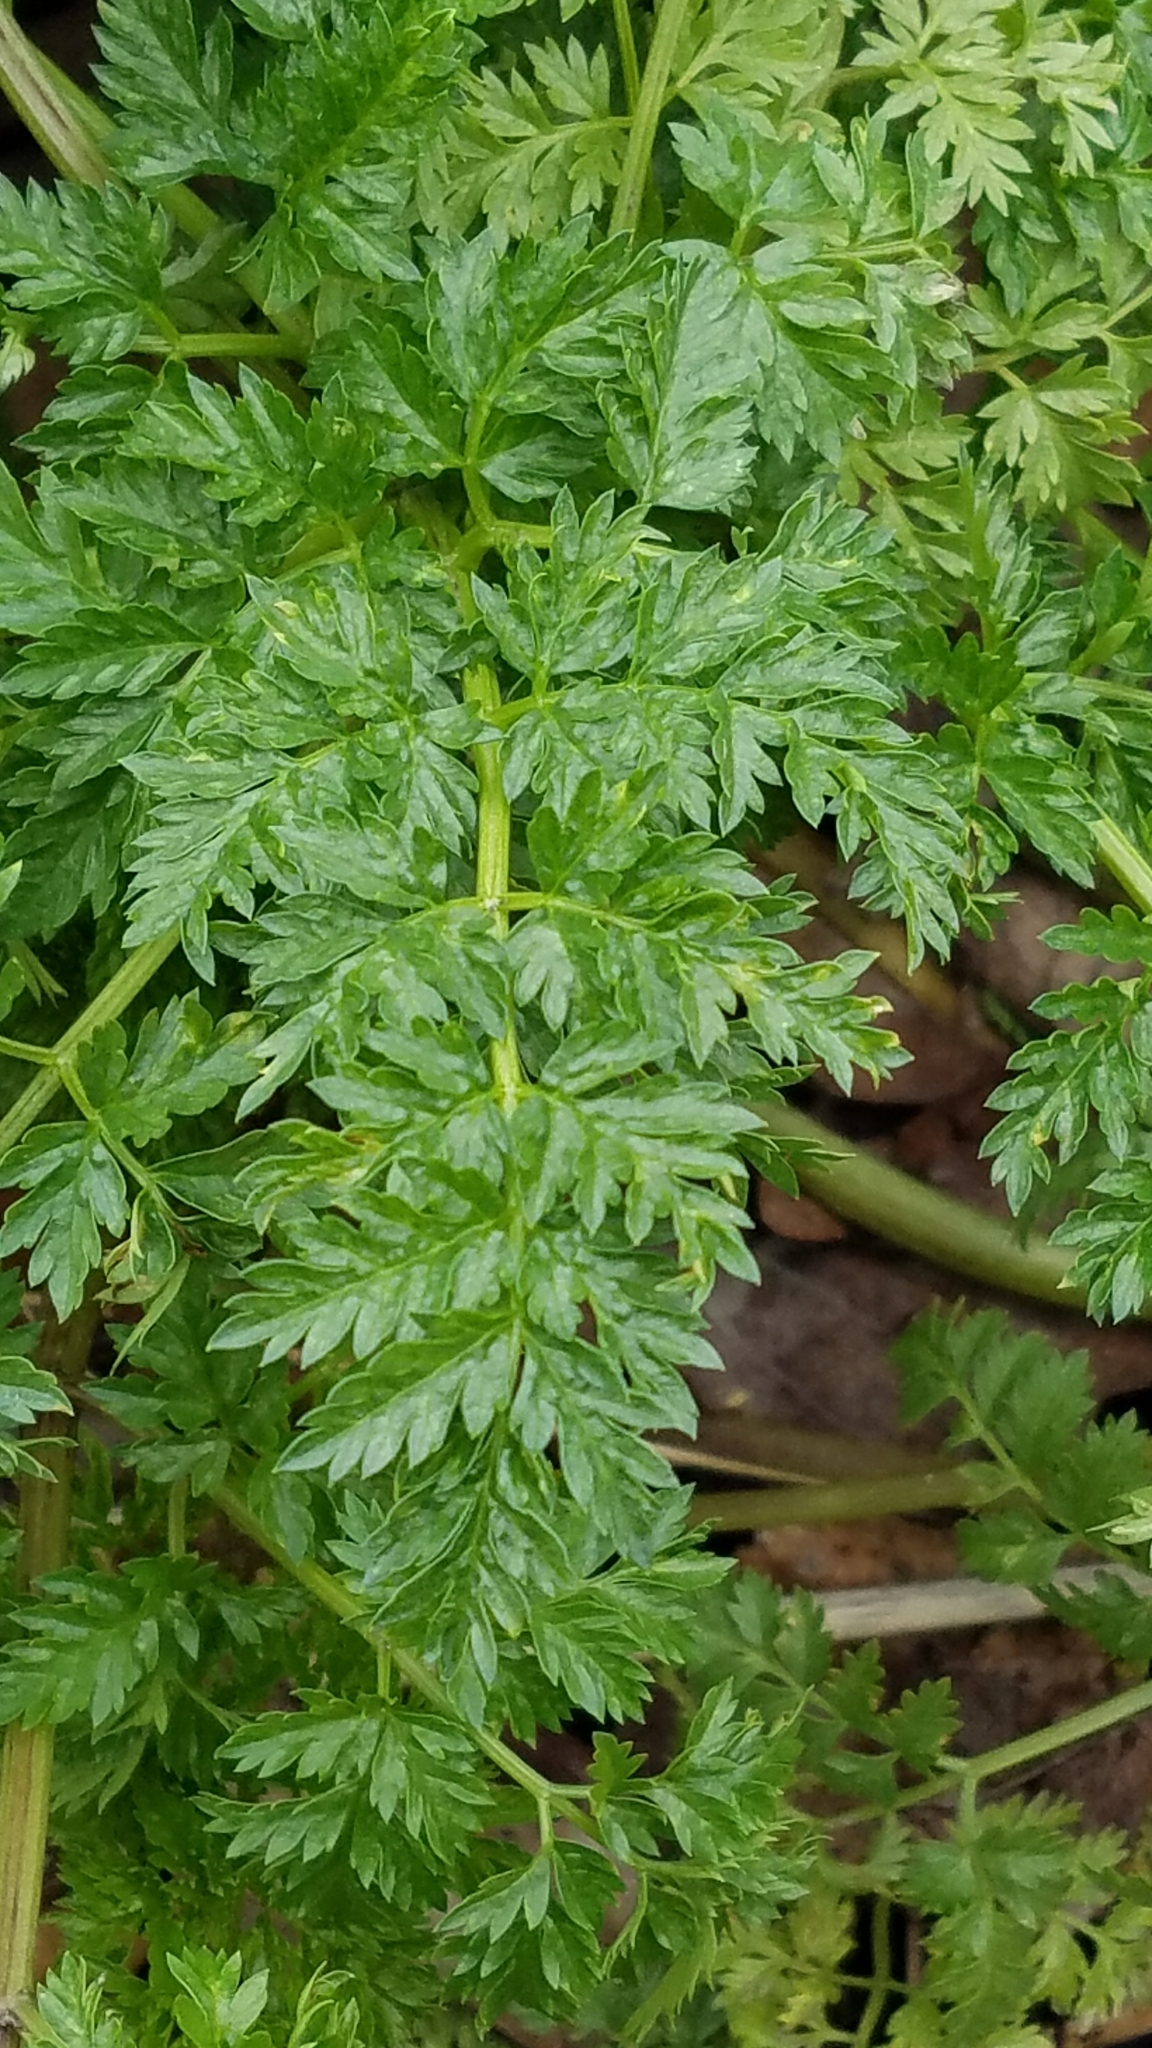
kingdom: Plantae
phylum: Tracheophyta
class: Magnoliopsida
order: Apiales
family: Apiaceae
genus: Conium
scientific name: Conium maculatum
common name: Hemlock
